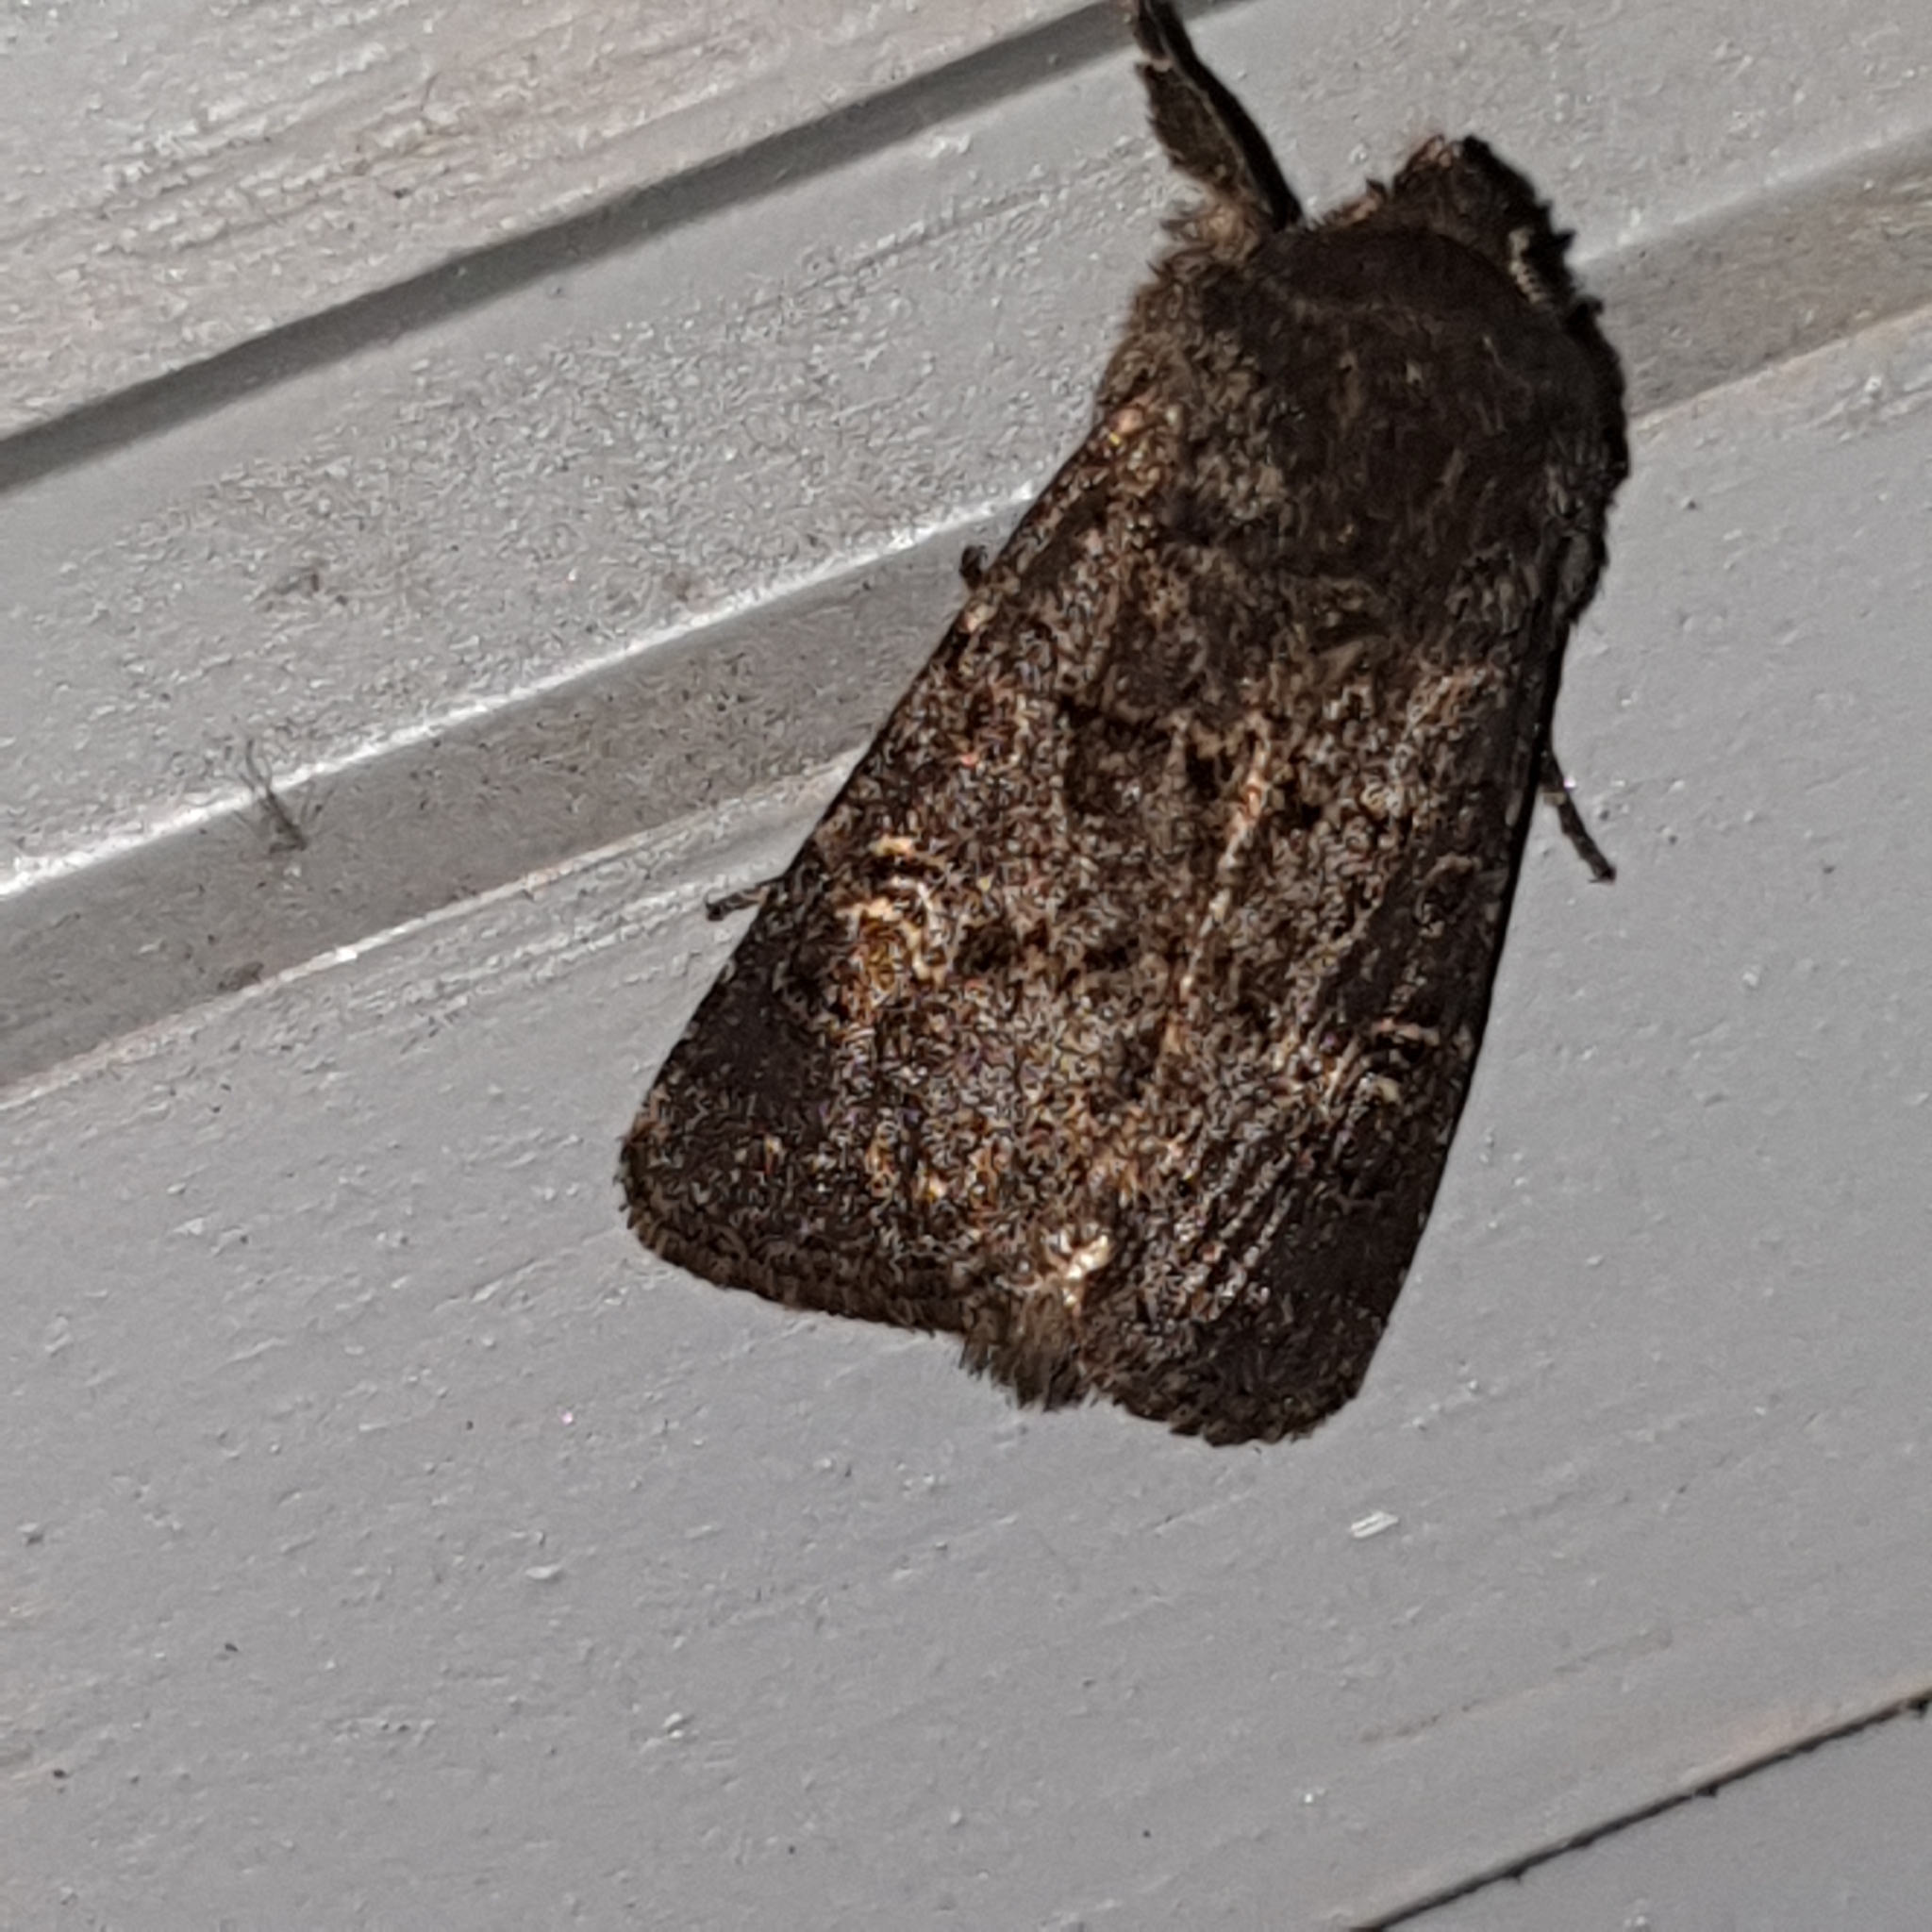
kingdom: Animalia
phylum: Arthropoda
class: Insecta
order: Lepidoptera
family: Noctuidae
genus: Tholera
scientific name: Tholera cespitis
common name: Hedge rustic
